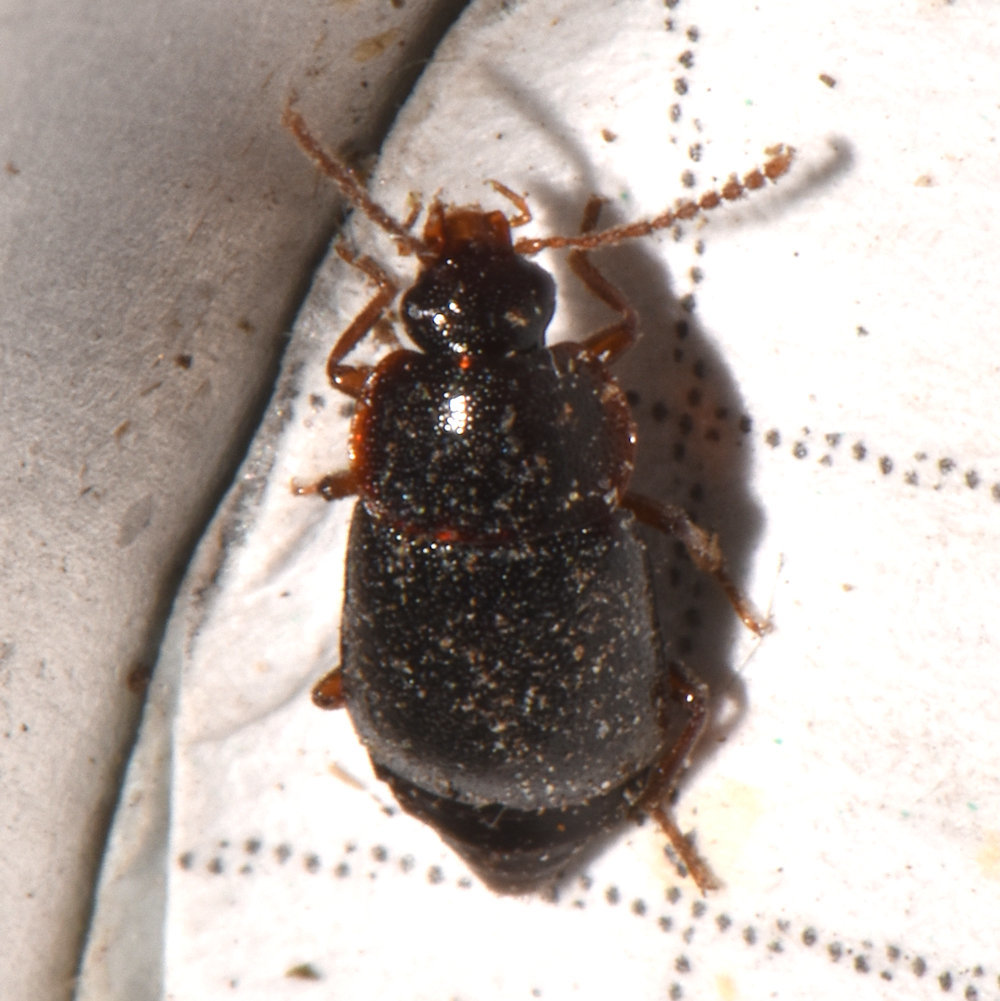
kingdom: Animalia
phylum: Arthropoda
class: Insecta
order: Coleoptera
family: Staphylinidae
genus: Olophrum
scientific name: Olophrum obtectum
